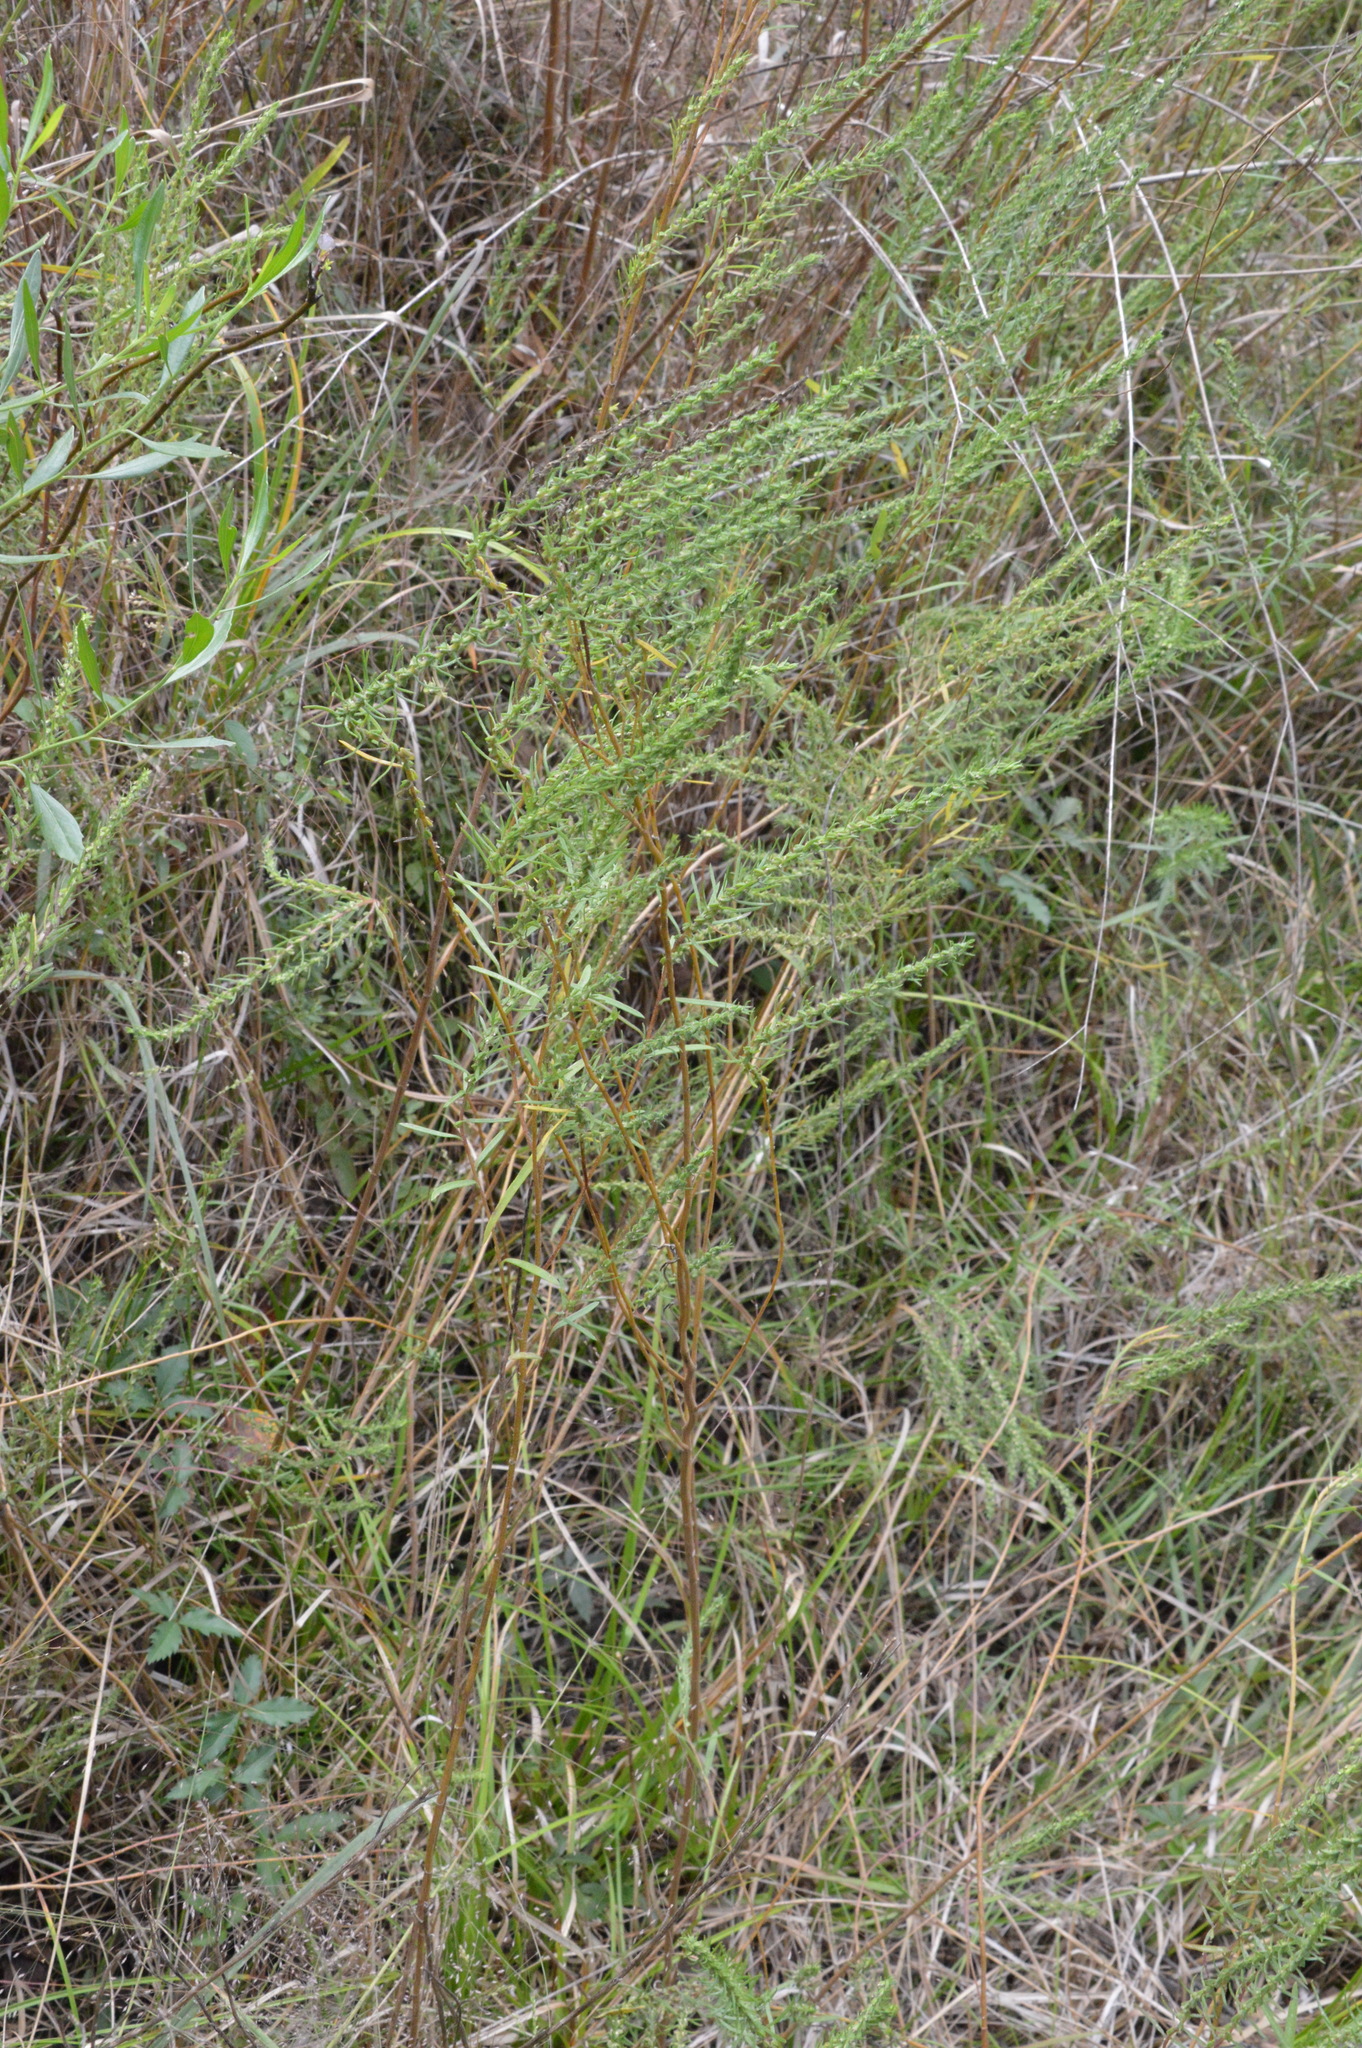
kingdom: Plantae
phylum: Tracheophyta
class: Magnoliopsida
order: Asterales
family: Asteraceae
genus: Iva
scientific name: Iva asperifolia
